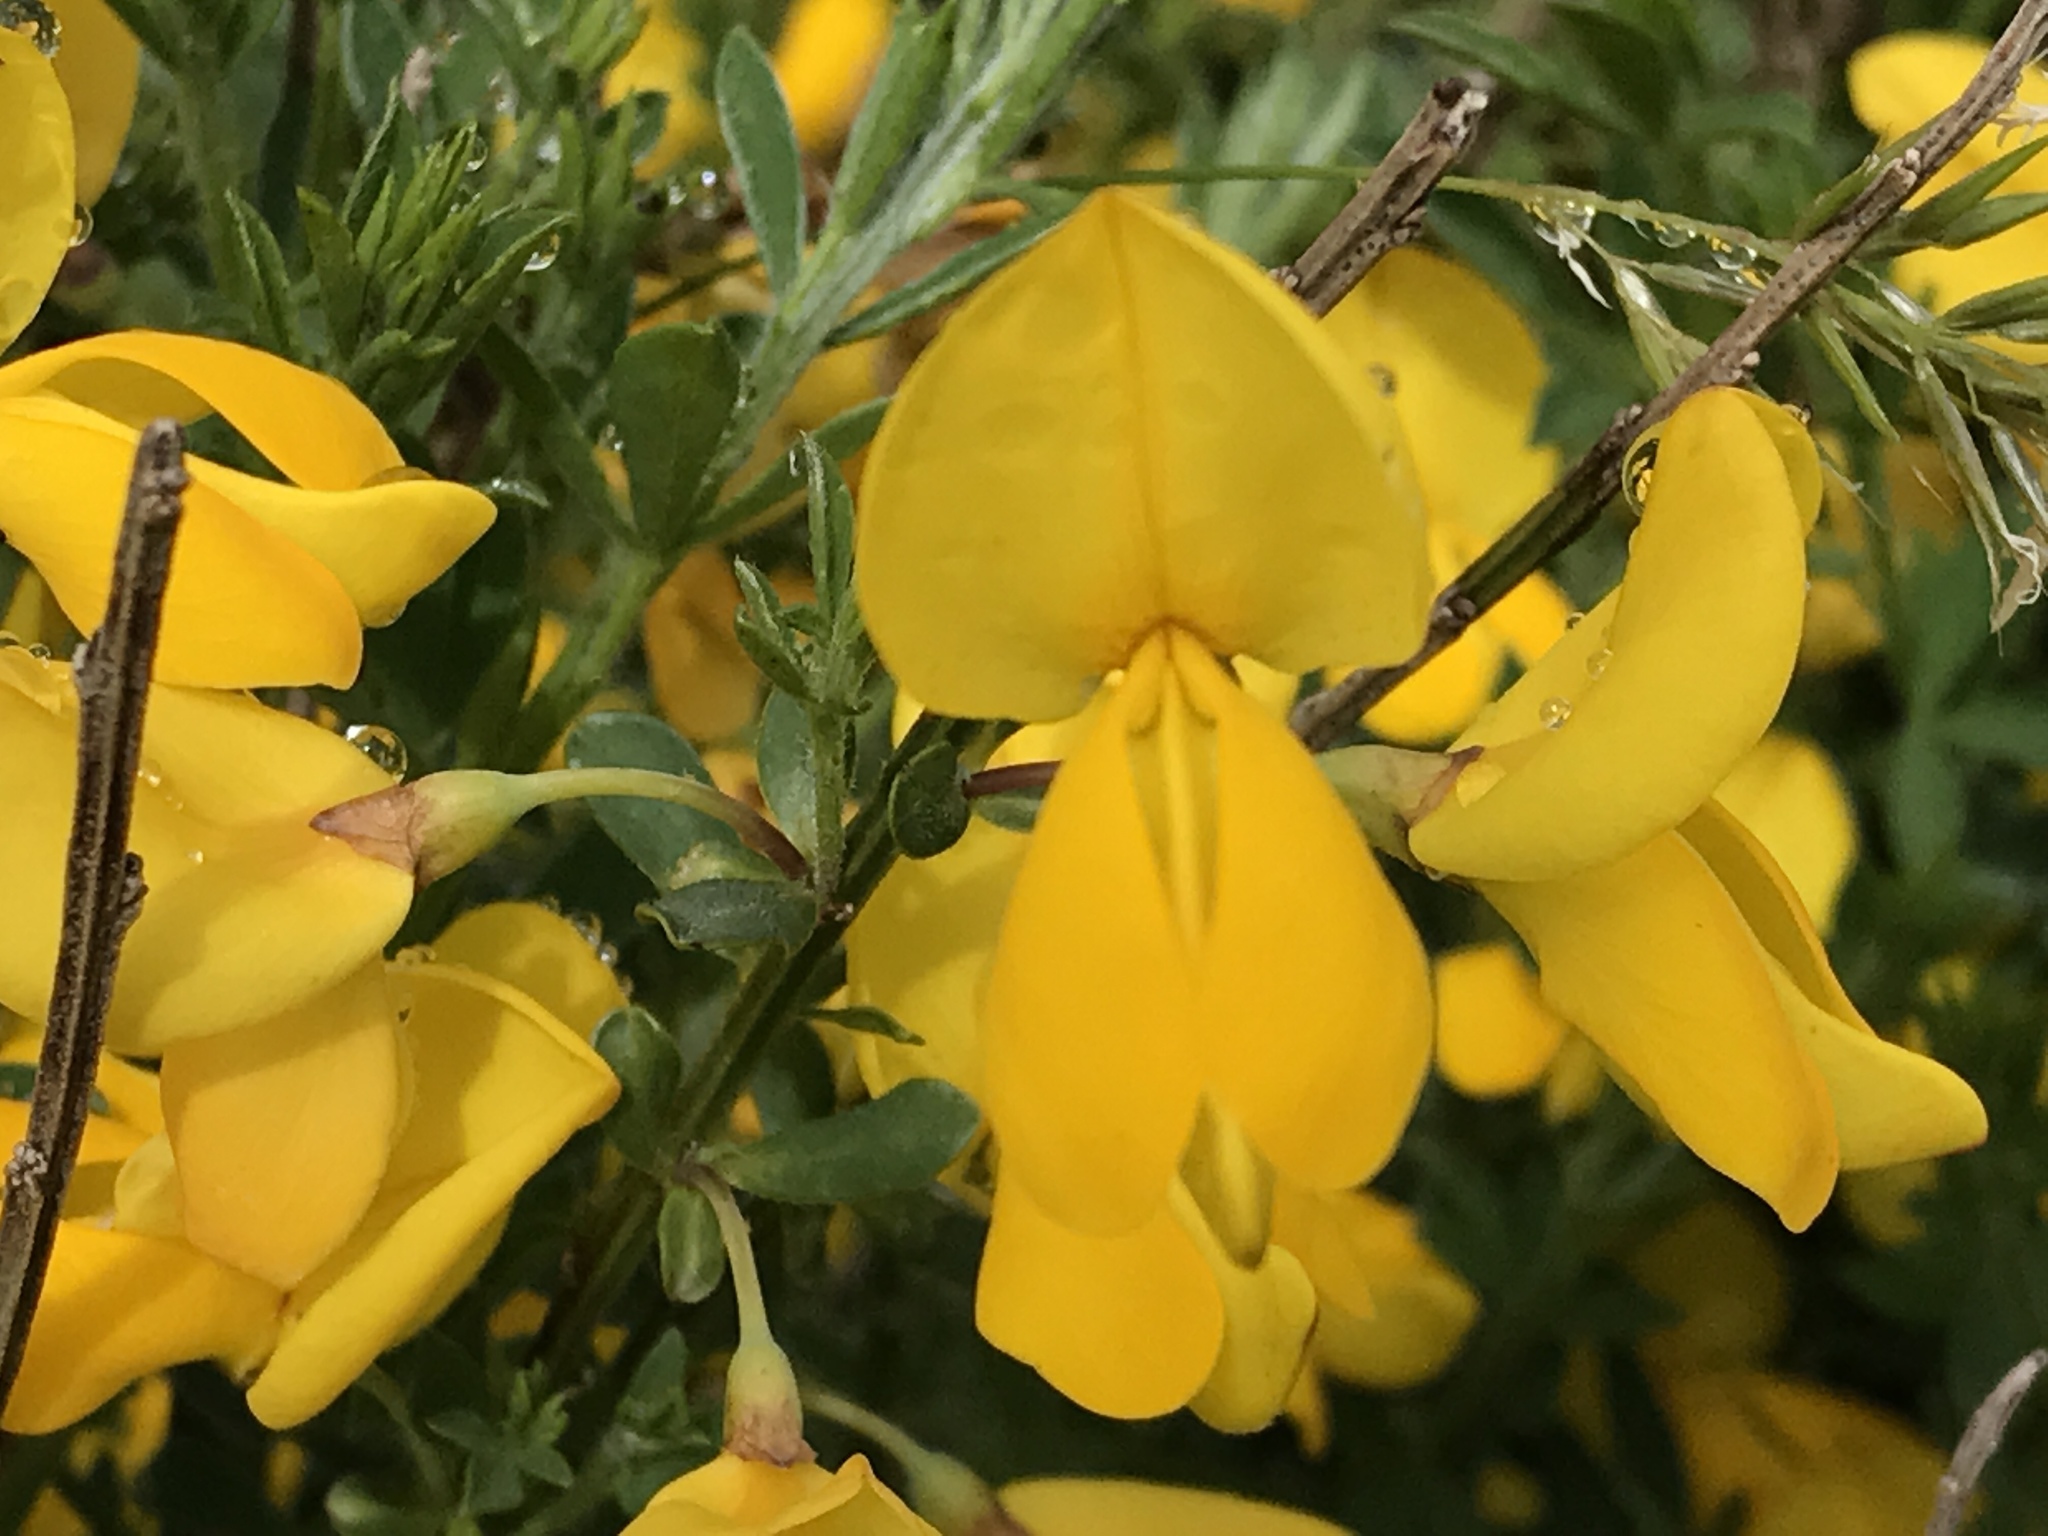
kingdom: Plantae
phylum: Tracheophyta
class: Magnoliopsida
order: Fabales
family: Fabaceae
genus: Cytisus
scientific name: Cytisus scoparius
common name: Scotch broom
